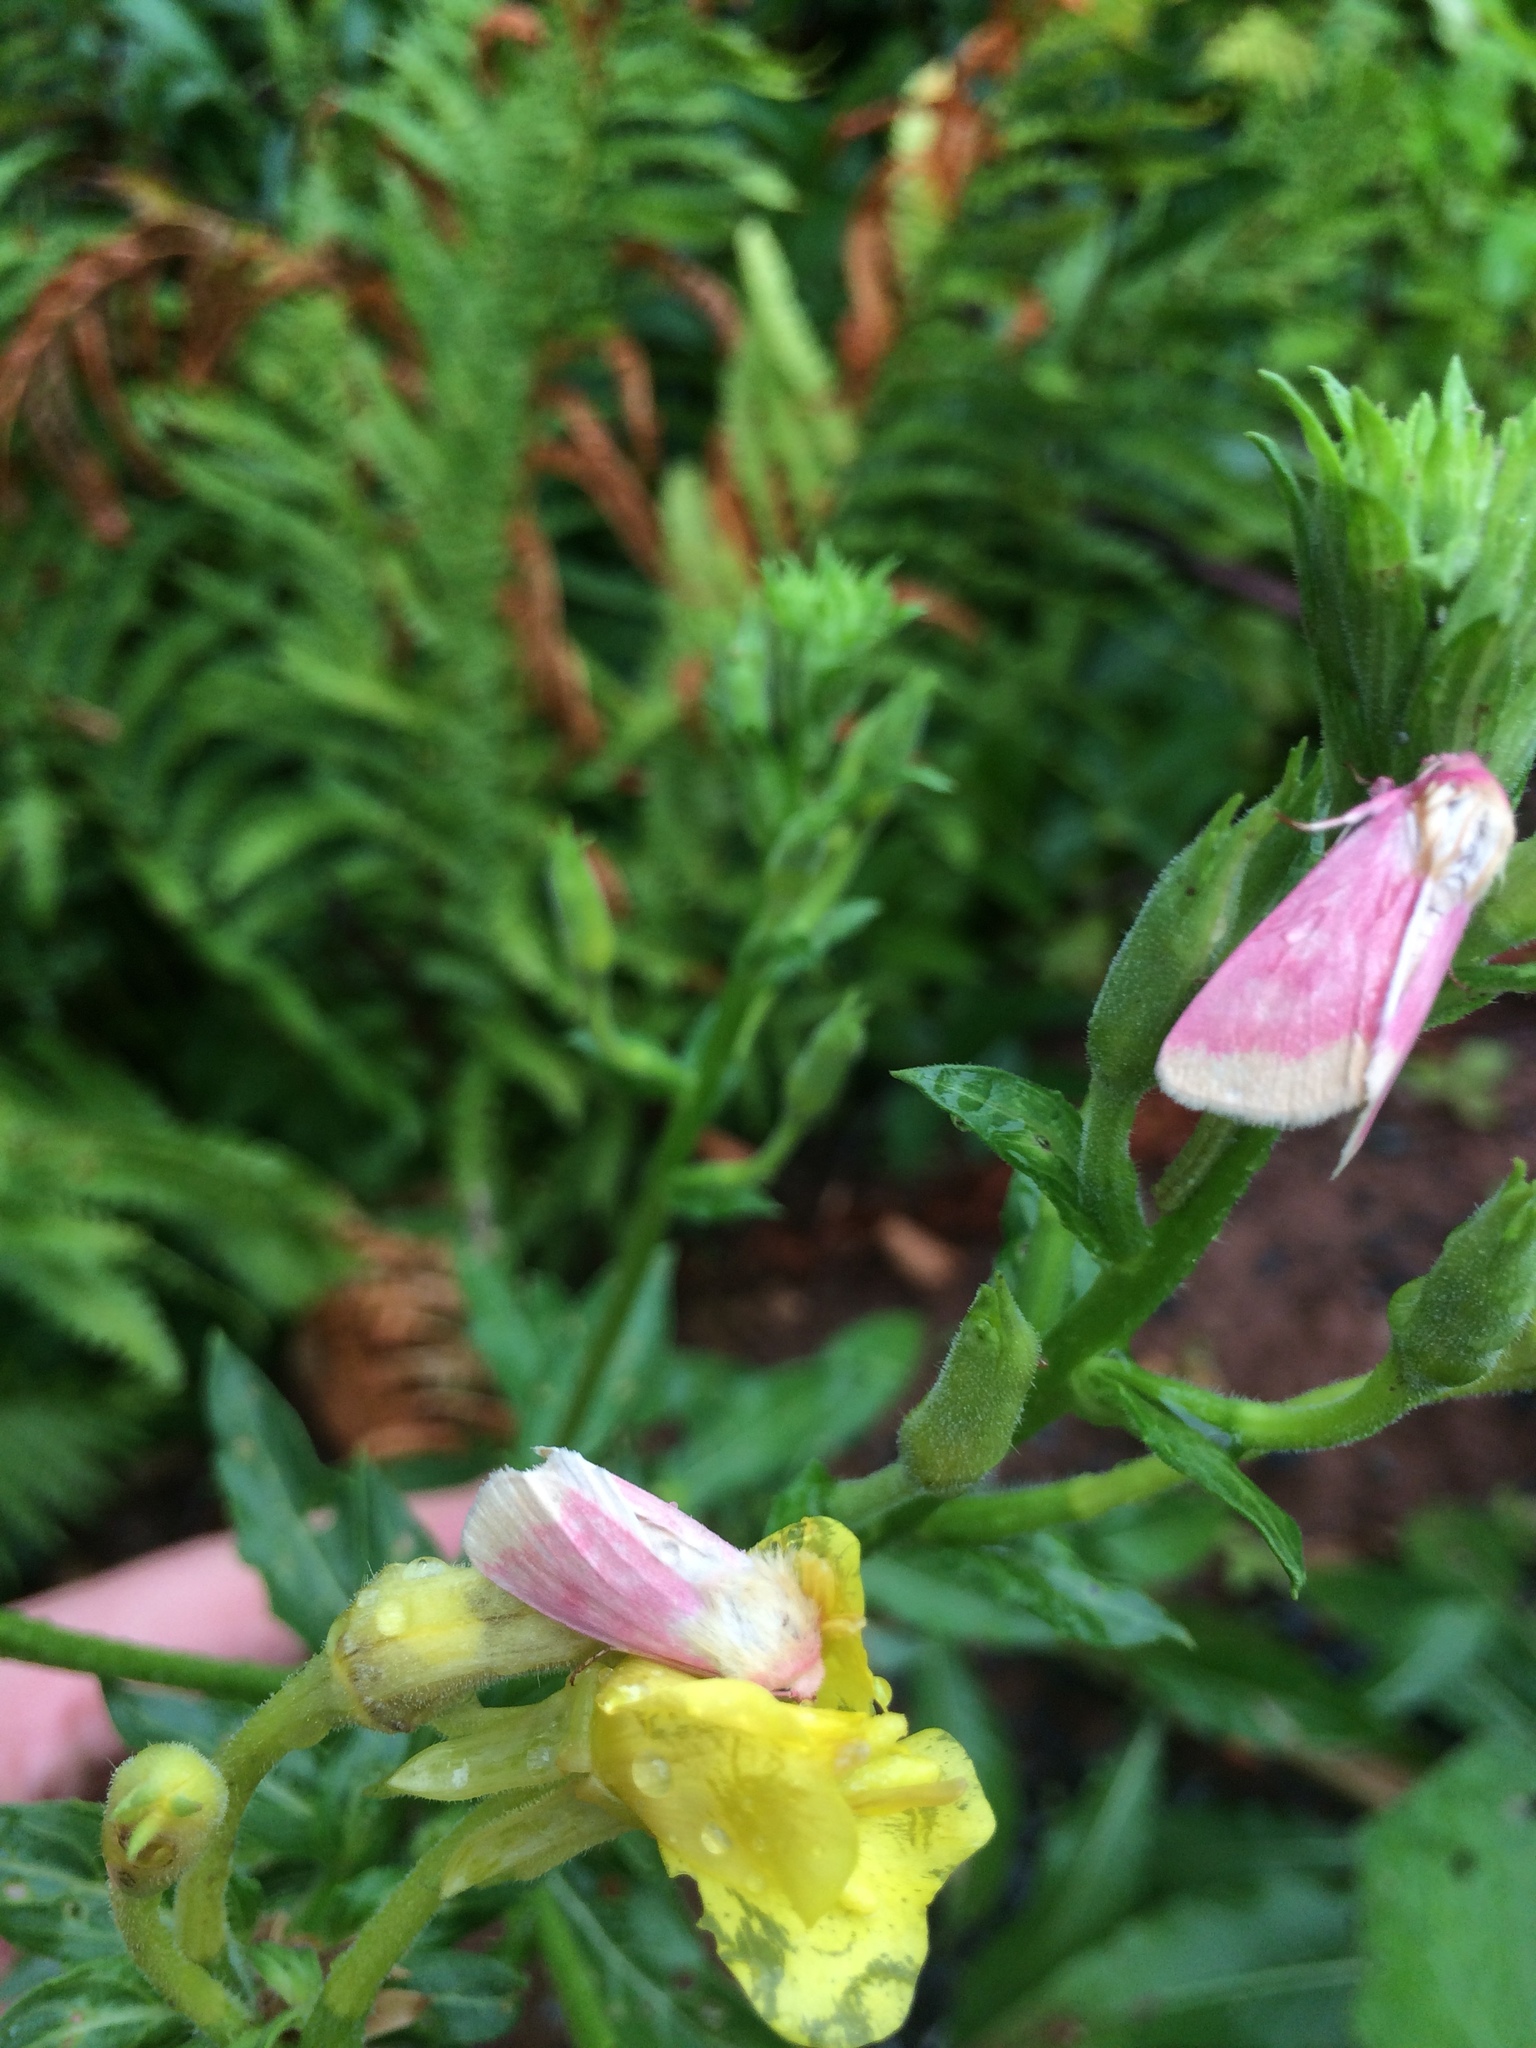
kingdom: Animalia
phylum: Arthropoda
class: Insecta
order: Lepidoptera
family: Noctuidae
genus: Schinia
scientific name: Schinia florida
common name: Primrose moth
